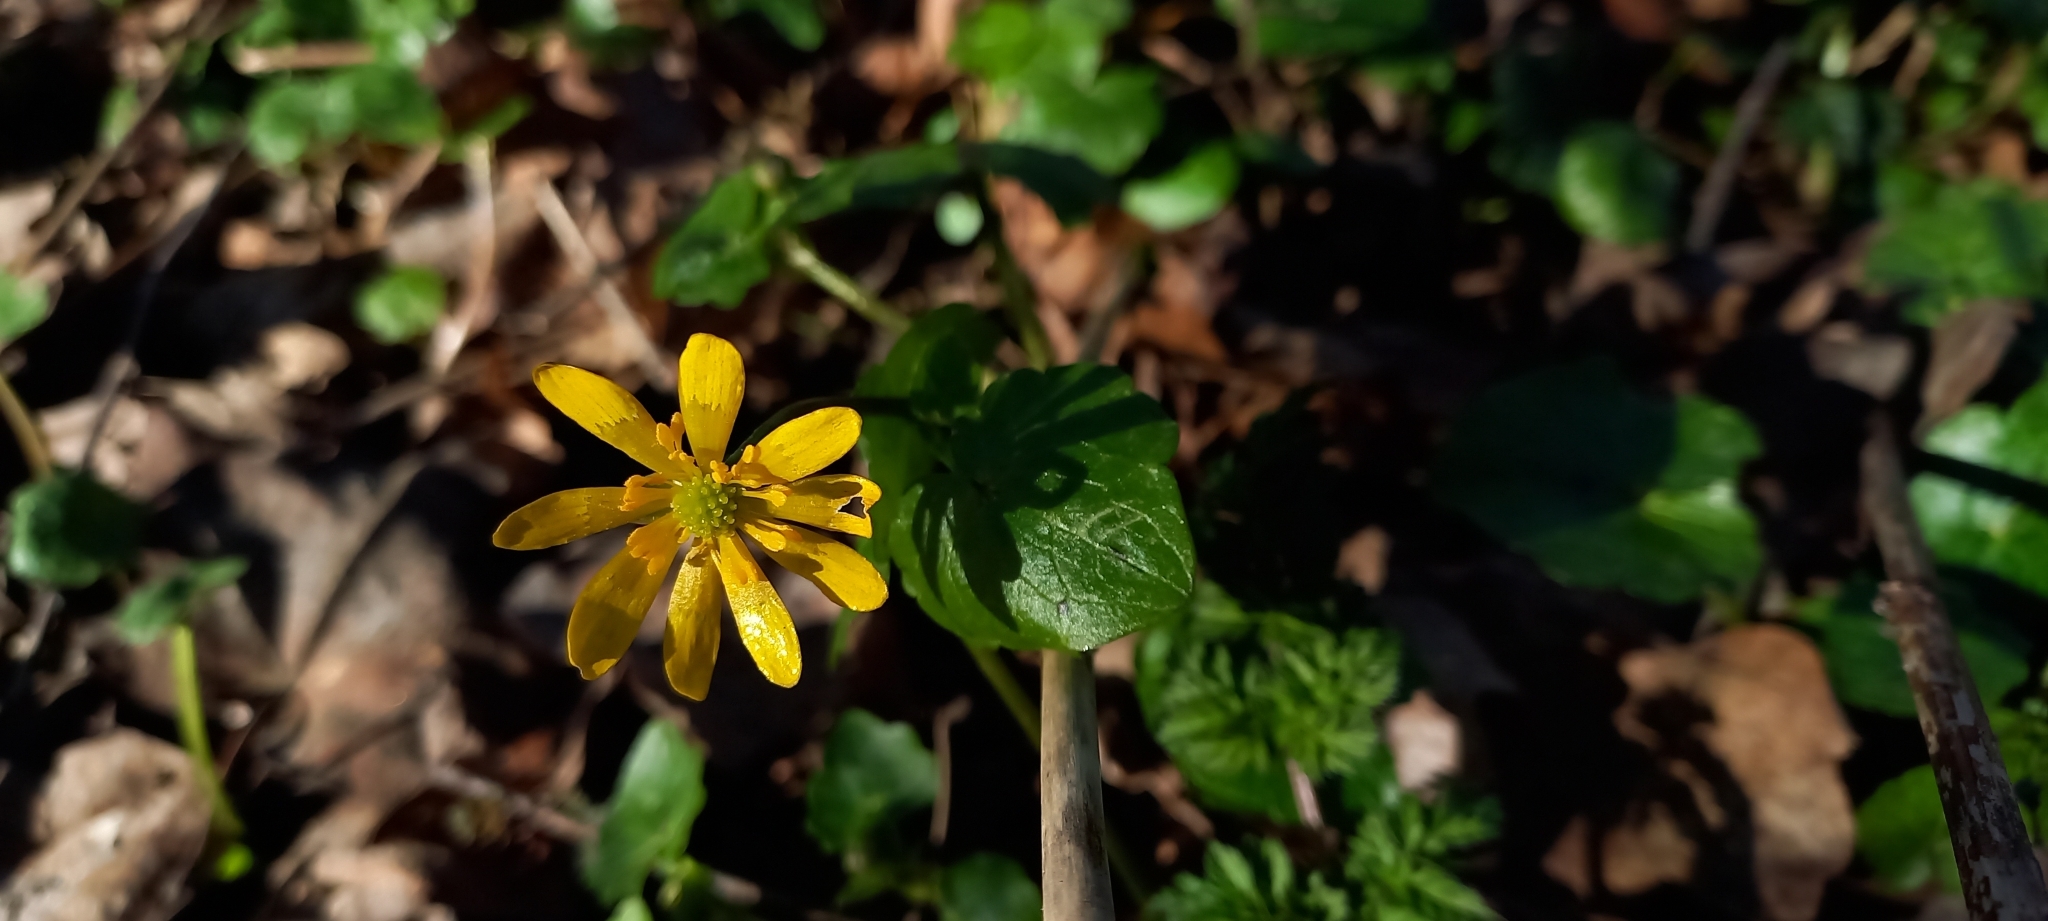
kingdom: Plantae
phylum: Tracheophyta
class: Magnoliopsida
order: Ranunculales
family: Ranunculaceae
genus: Ficaria
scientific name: Ficaria verna
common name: Lesser celandine
